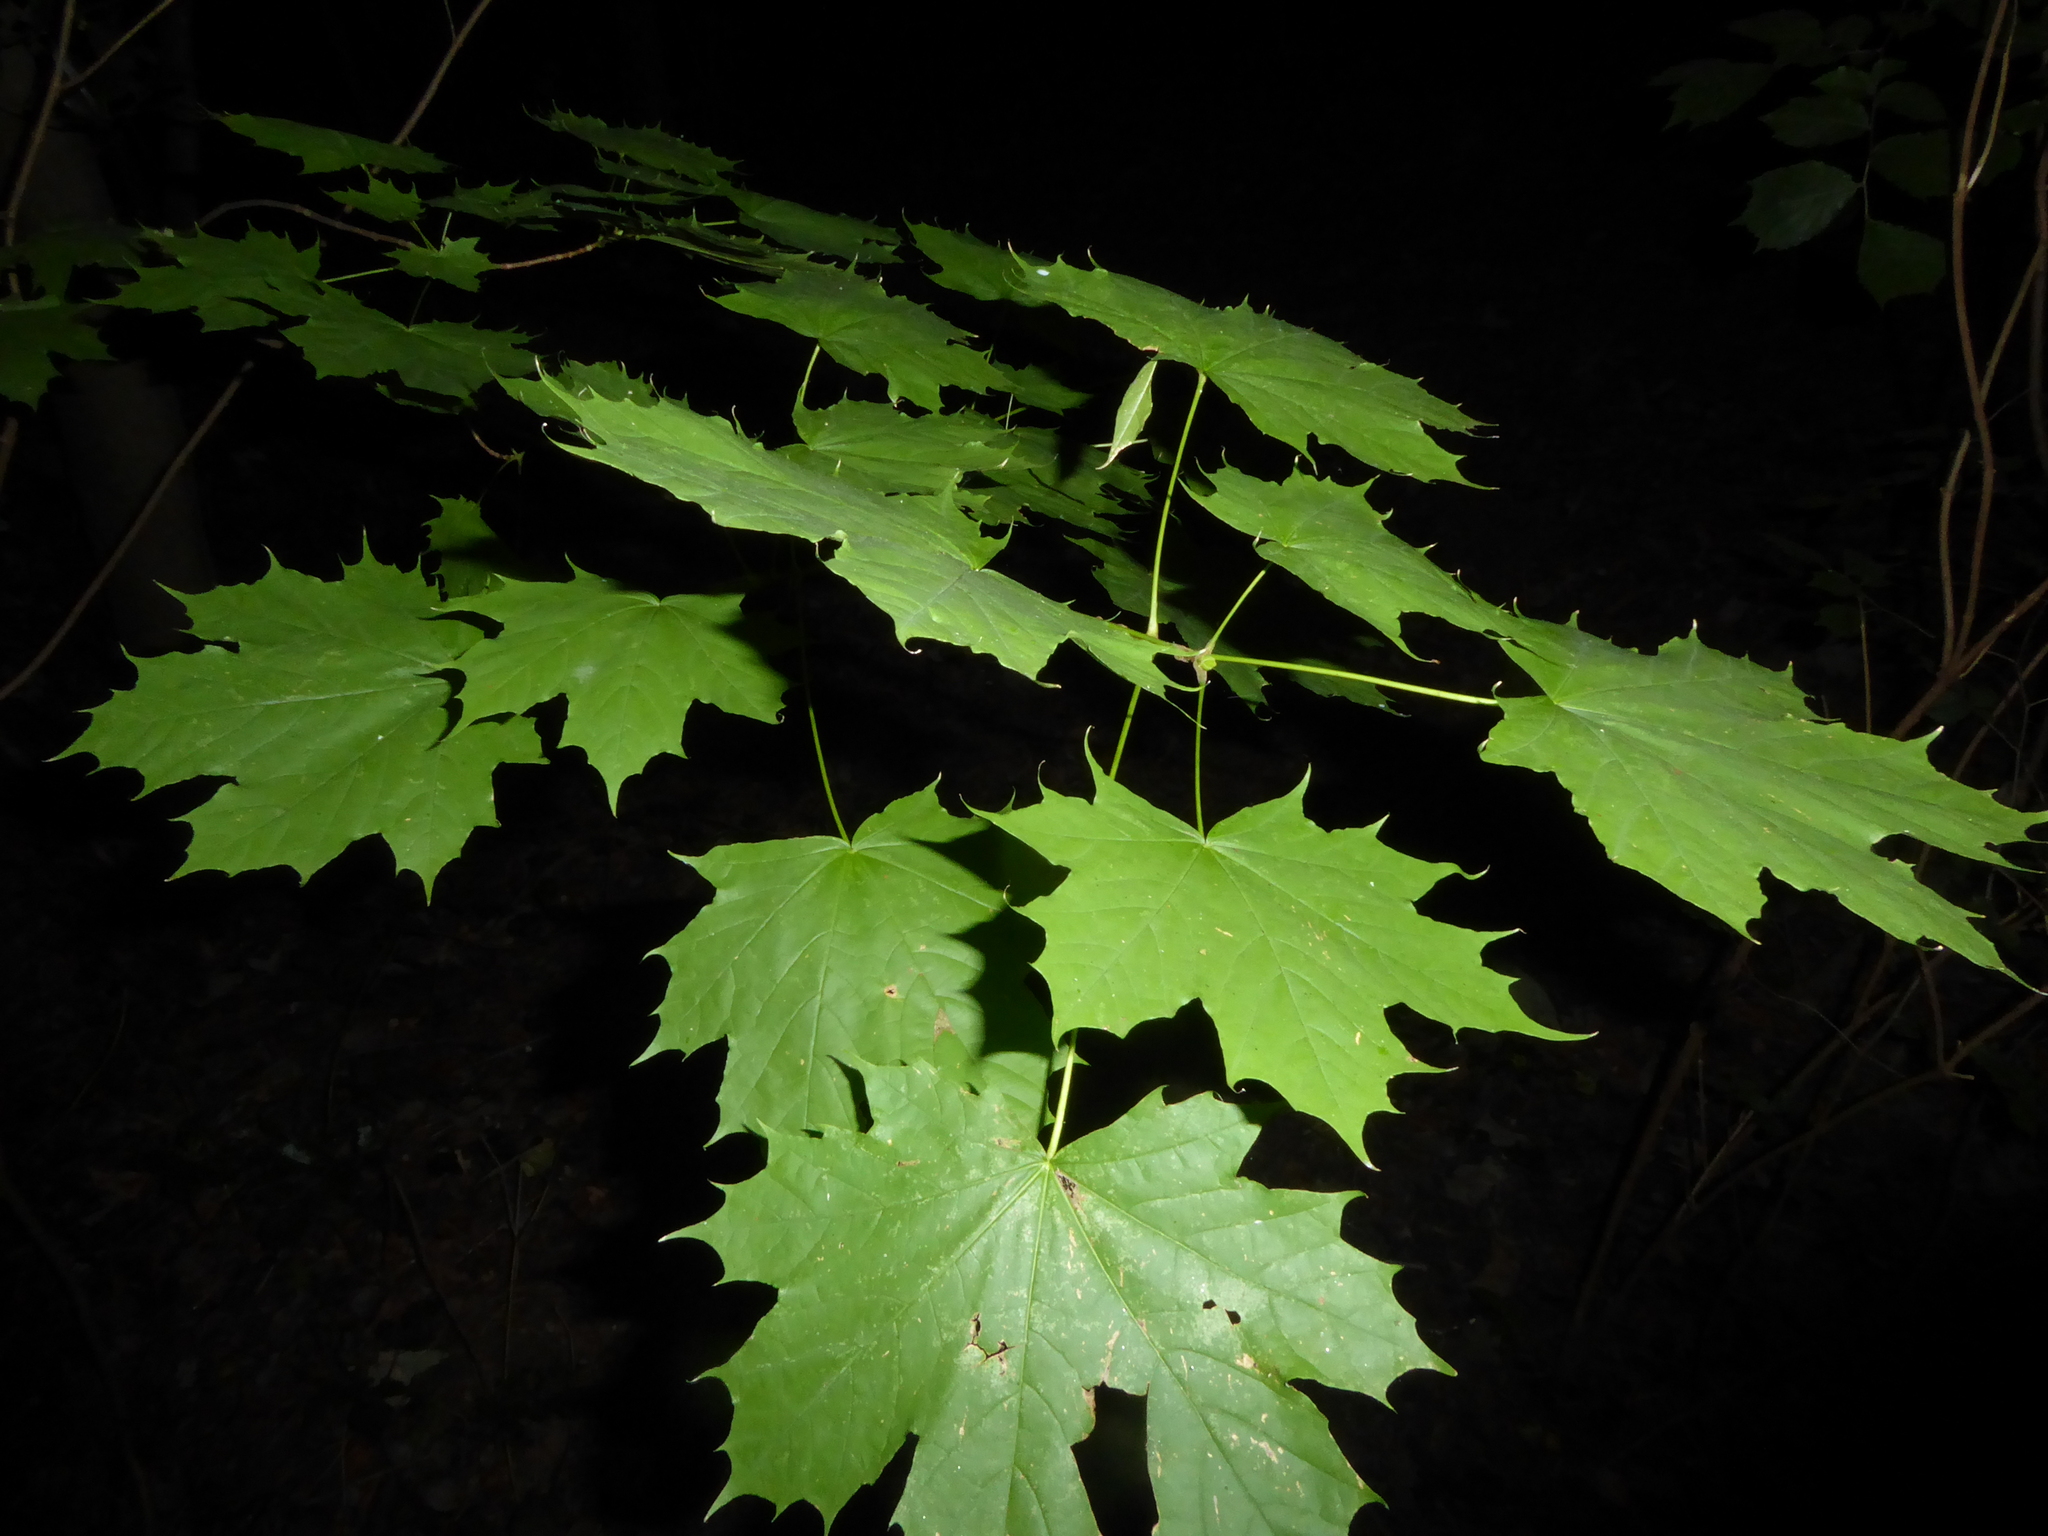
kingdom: Plantae
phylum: Tracheophyta
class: Magnoliopsida
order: Sapindales
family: Sapindaceae
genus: Acer
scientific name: Acer platanoides
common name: Norway maple
